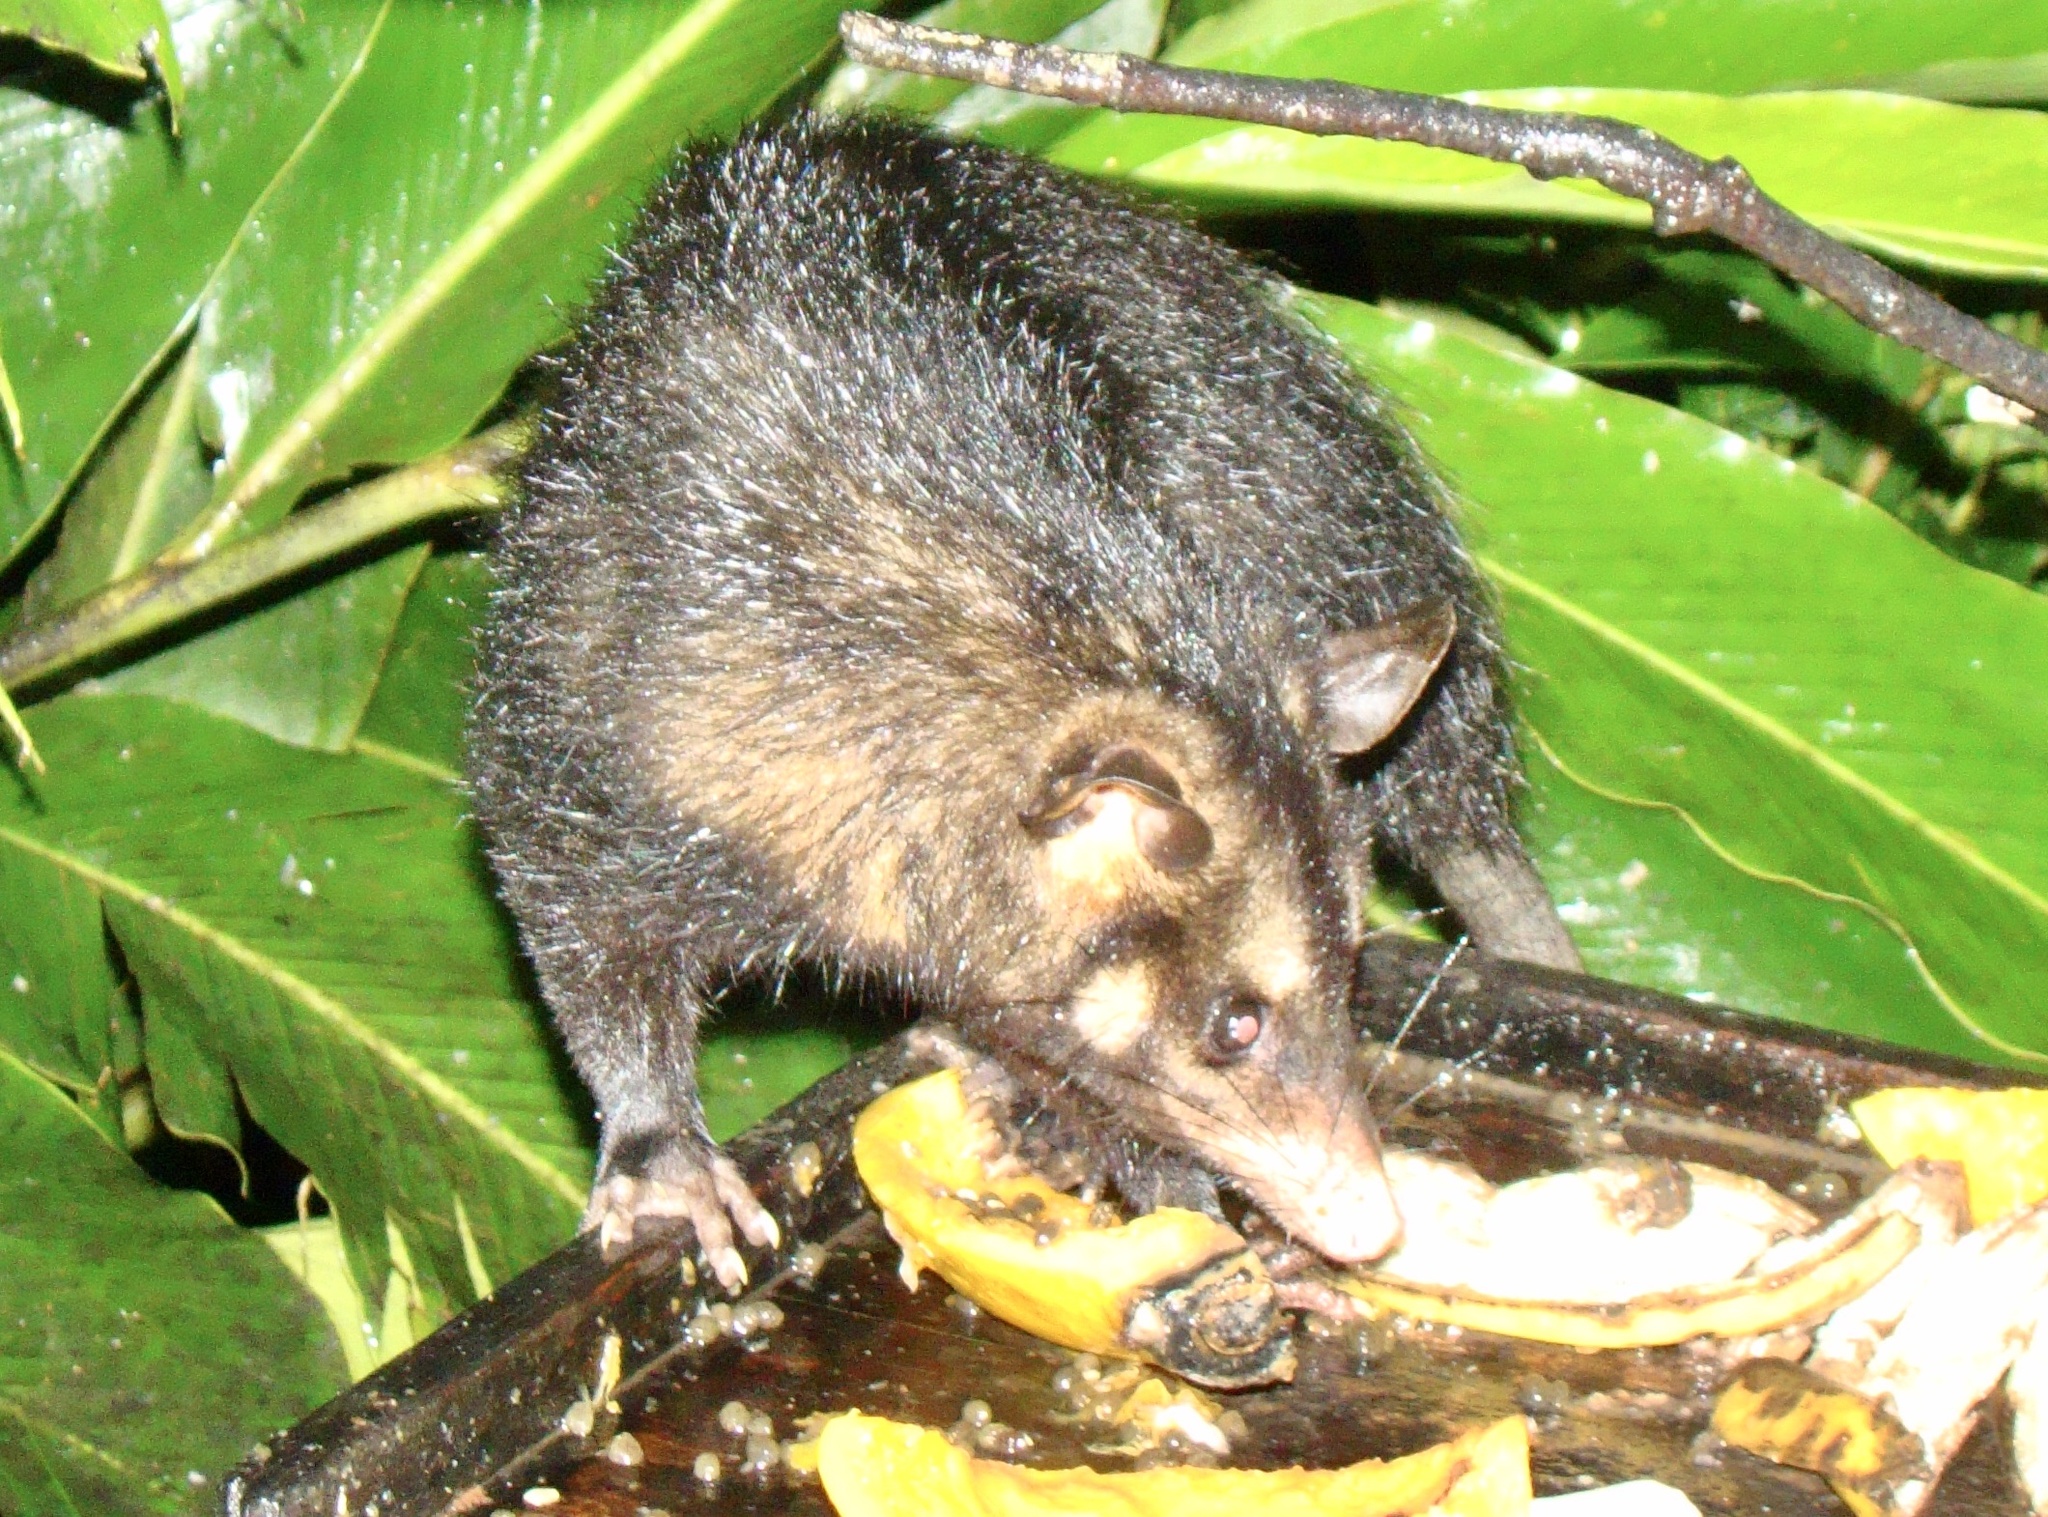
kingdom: Animalia
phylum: Chordata
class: Mammalia
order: Didelphimorphia
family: Didelphidae
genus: Didelphis
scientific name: Didelphis aurita
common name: Big-eared opossum
